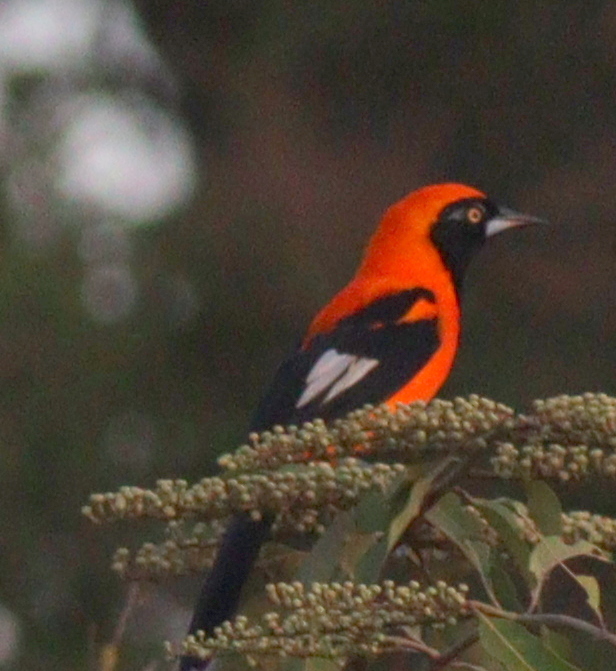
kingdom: Animalia
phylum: Chordata
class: Aves
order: Passeriformes
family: Icteridae
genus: Icterus
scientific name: Icterus icterus
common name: Venezuelan troupial
